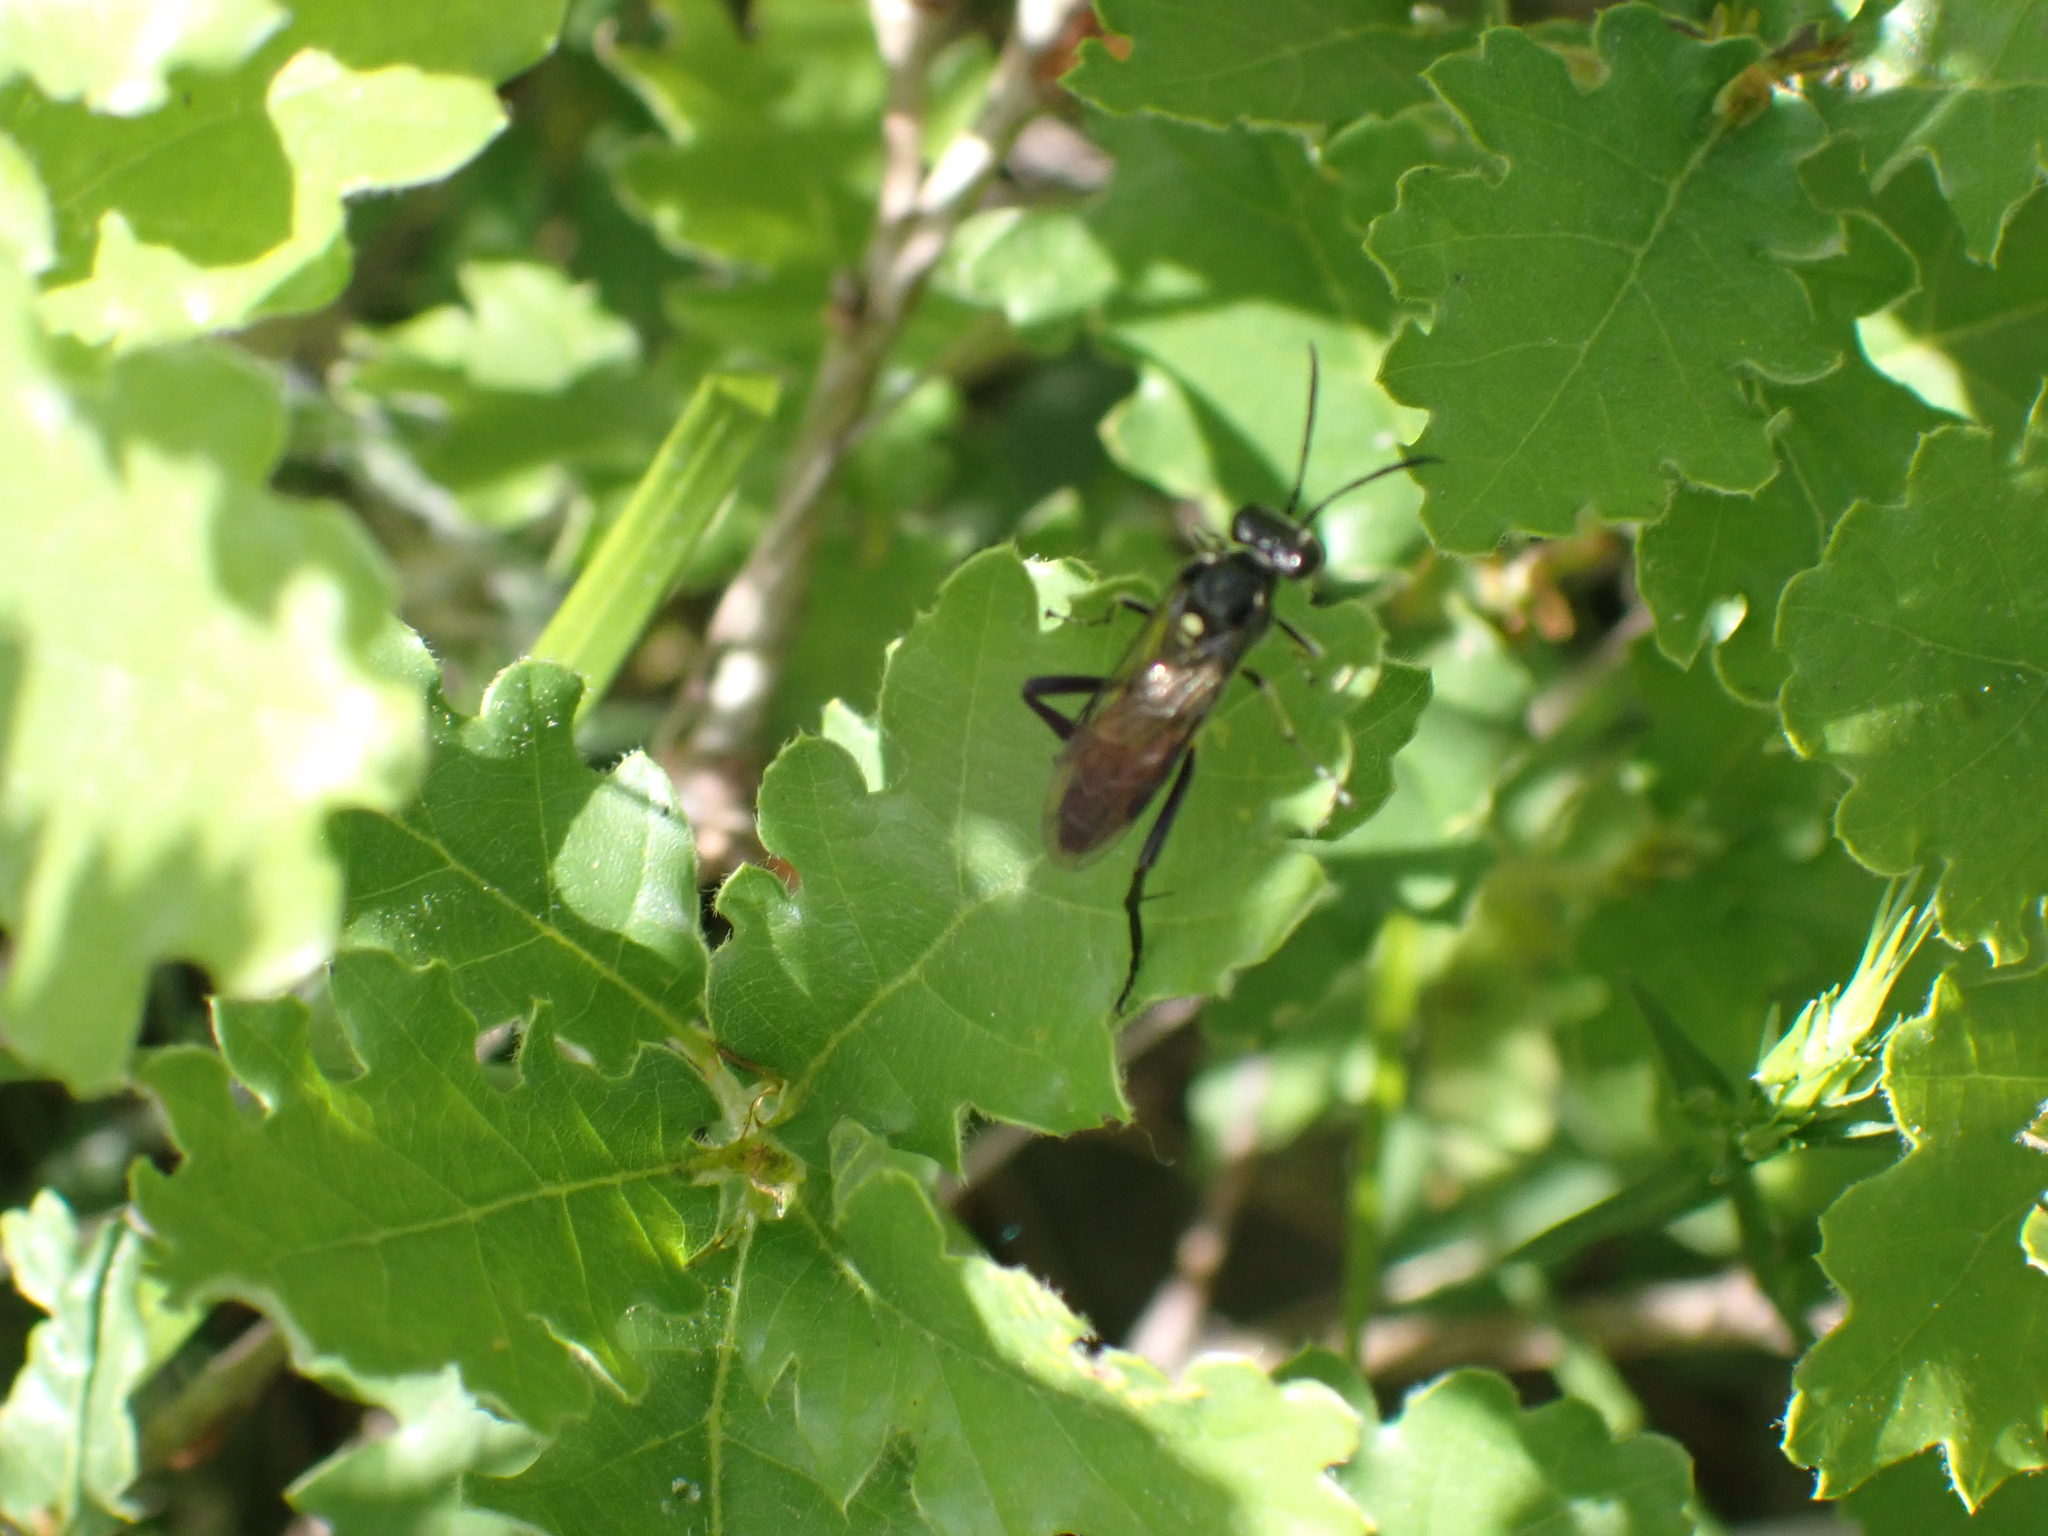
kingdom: Animalia
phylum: Arthropoda
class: Insecta
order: Hymenoptera
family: Tenthredinidae
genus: Macrophya
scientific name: Macrophya militaris
